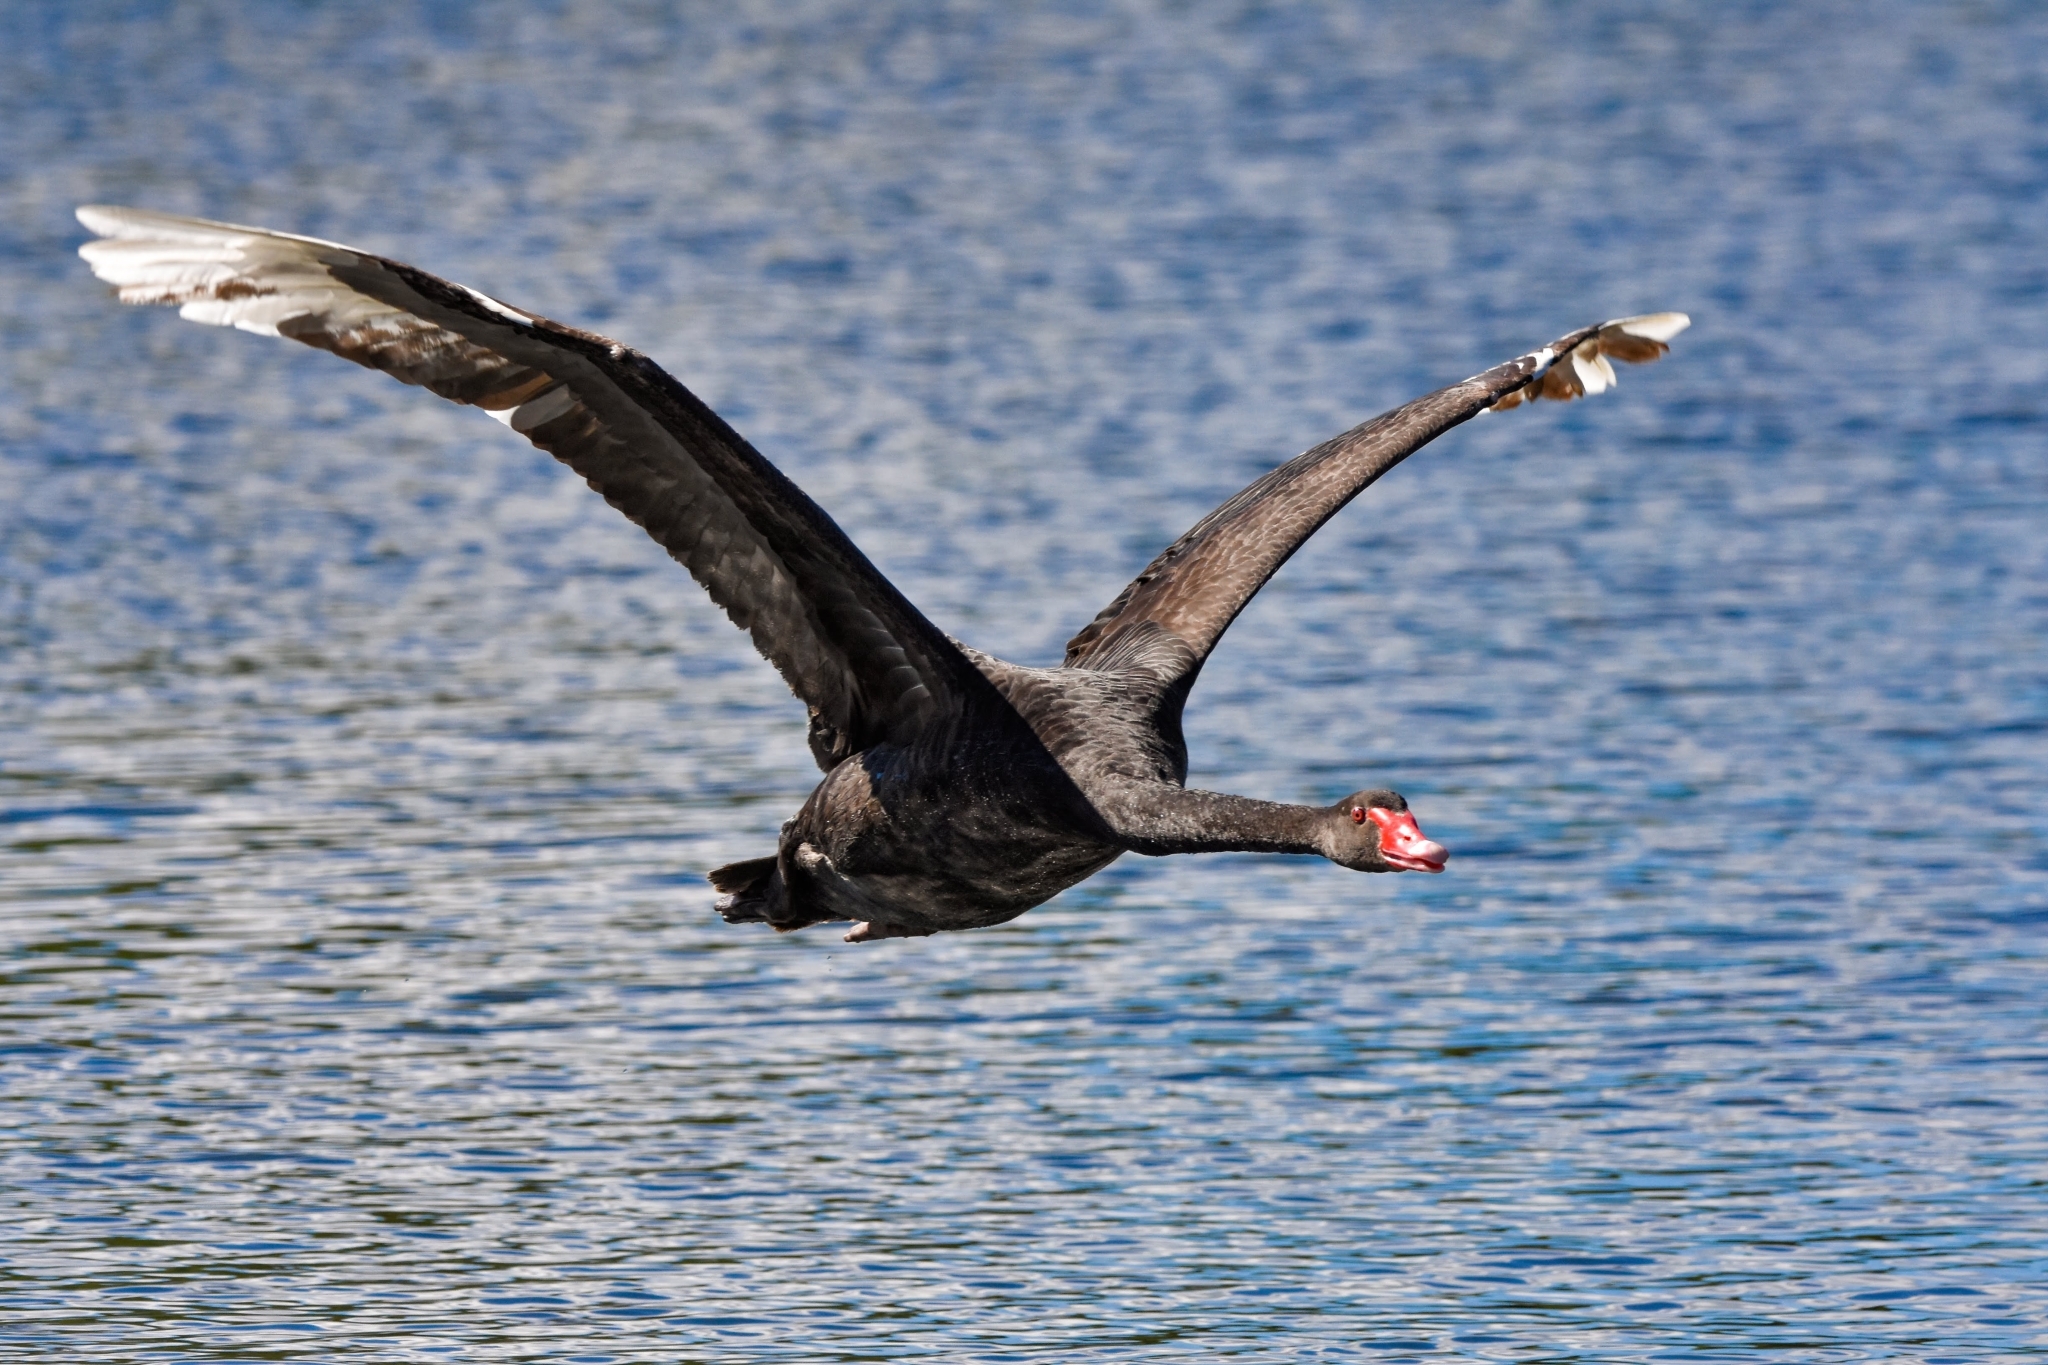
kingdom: Animalia
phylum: Chordata
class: Aves
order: Anseriformes
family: Anatidae
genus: Cygnus
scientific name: Cygnus atratus
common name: Black swan
